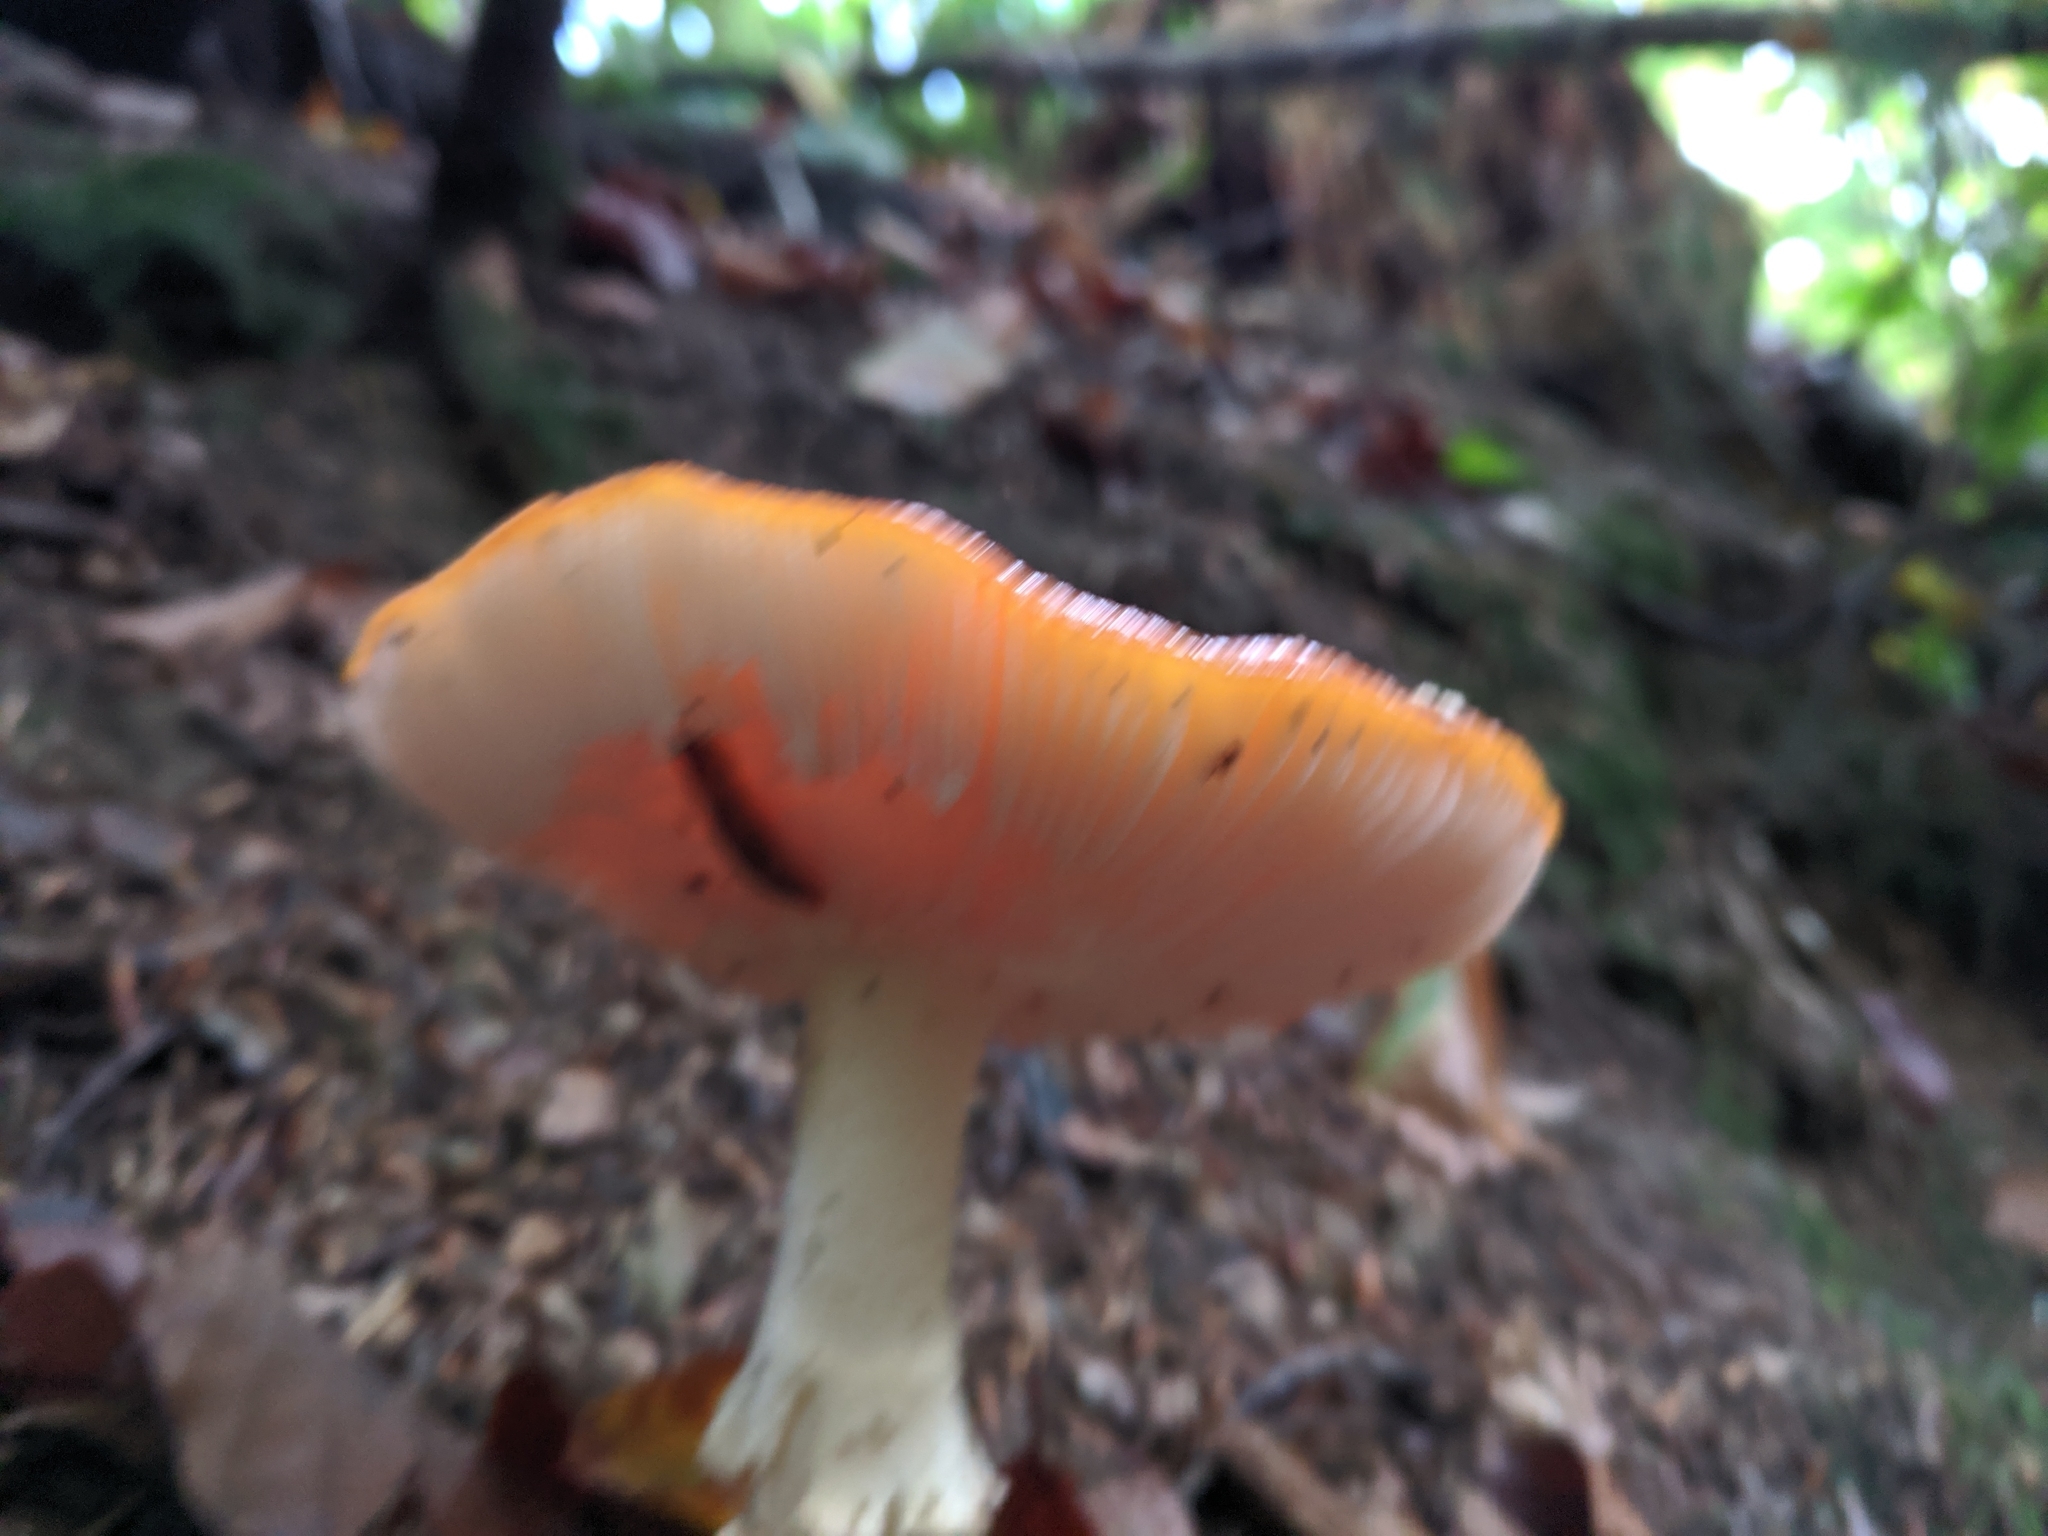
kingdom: Fungi
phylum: Basidiomycota
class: Agaricomycetes
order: Agaricales
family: Amanitaceae
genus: Amanita
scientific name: Amanita muscaria
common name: Fly agaric
